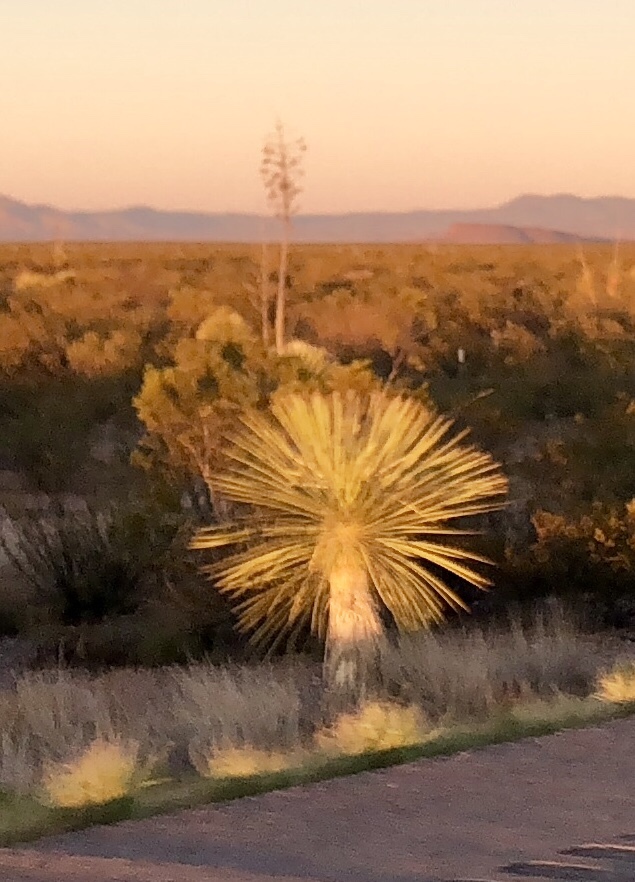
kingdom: Plantae
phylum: Tracheophyta
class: Liliopsida
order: Asparagales
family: Asparagaceae
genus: Yucca
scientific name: Yucca elata
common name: Palmella
